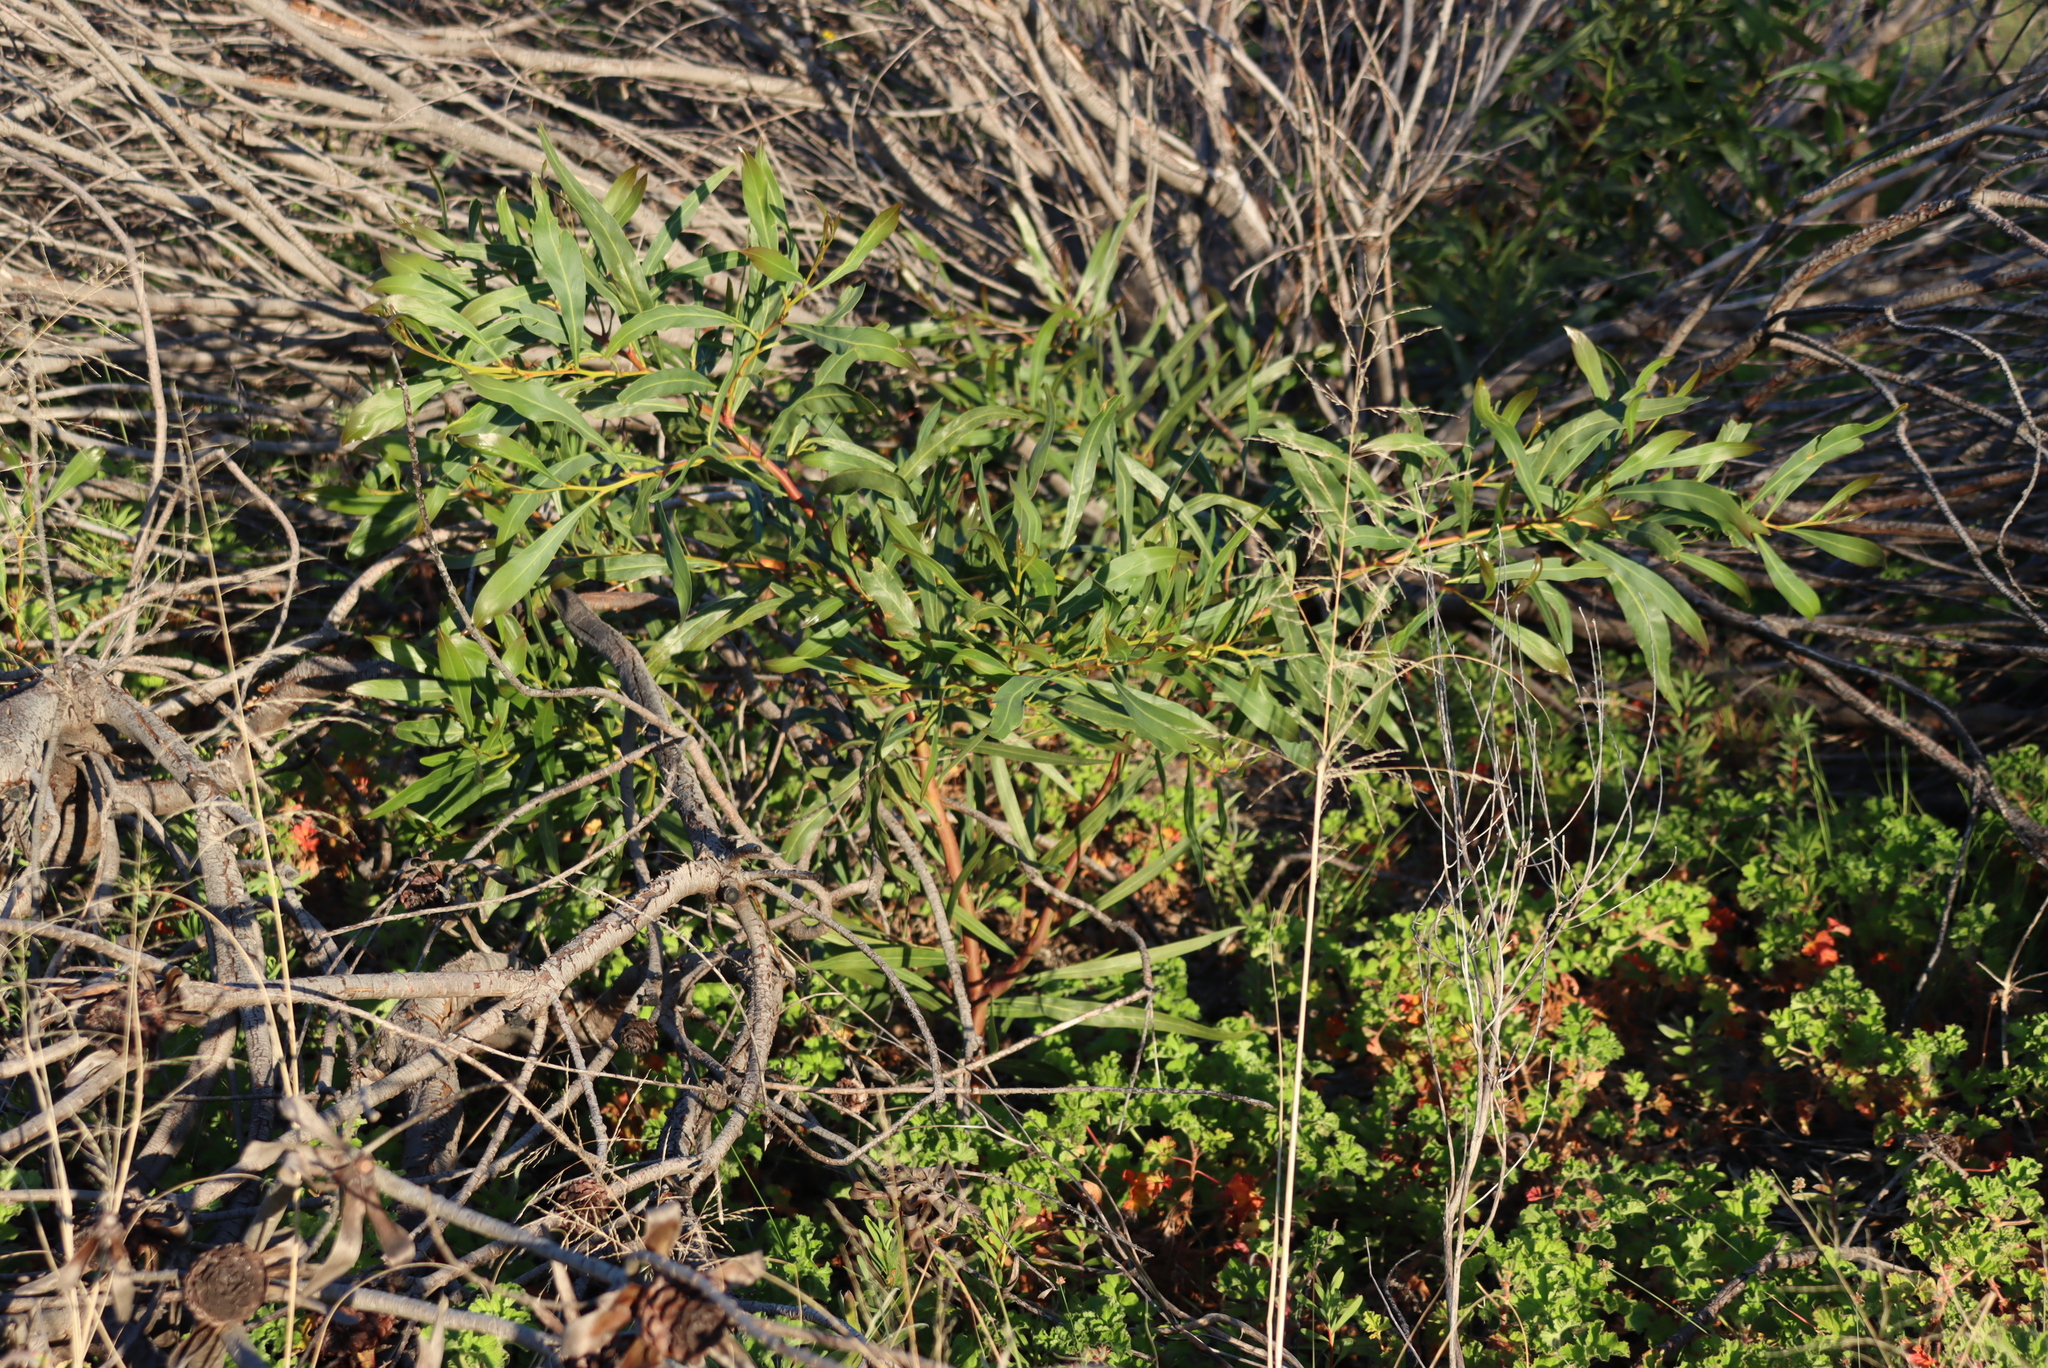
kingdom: Plantae
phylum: Tracheophyta
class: Magnoliopsida
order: Fabales
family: Fabaceae
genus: Acacia
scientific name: Acacia saligna
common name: Orange wattle
